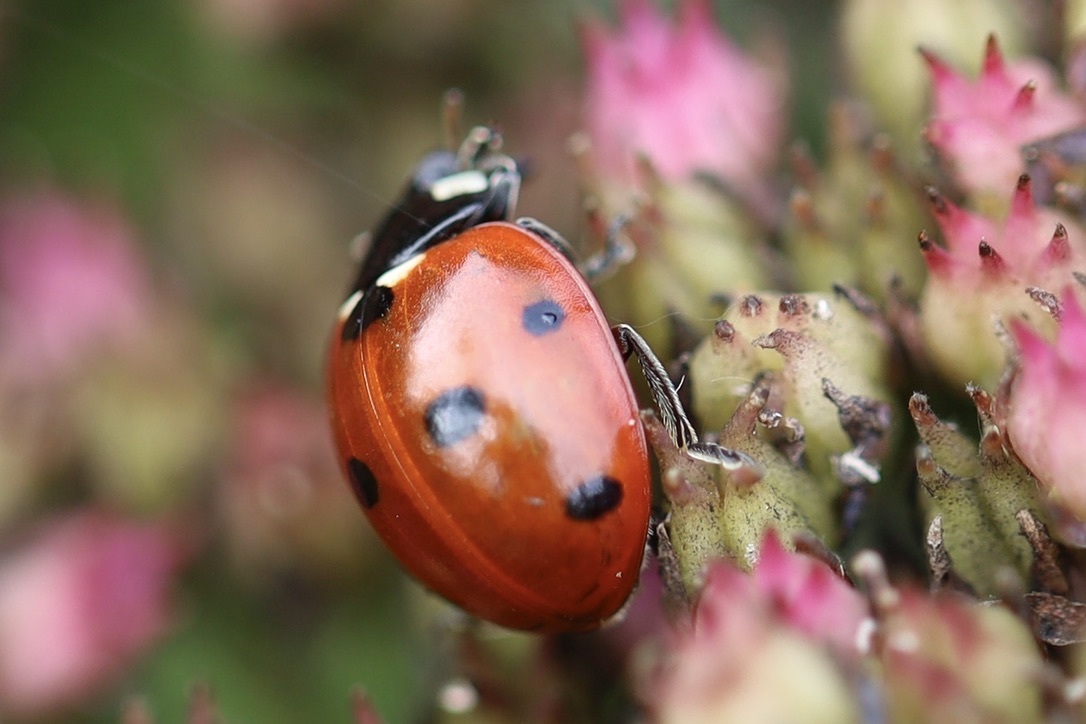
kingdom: Animalia
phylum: Arthropoda
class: Insecta
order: Coleoptera
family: Coccinellidae
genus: Coccinella
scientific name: Coccinella septempunctata
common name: Sevenspotted lady beetle
